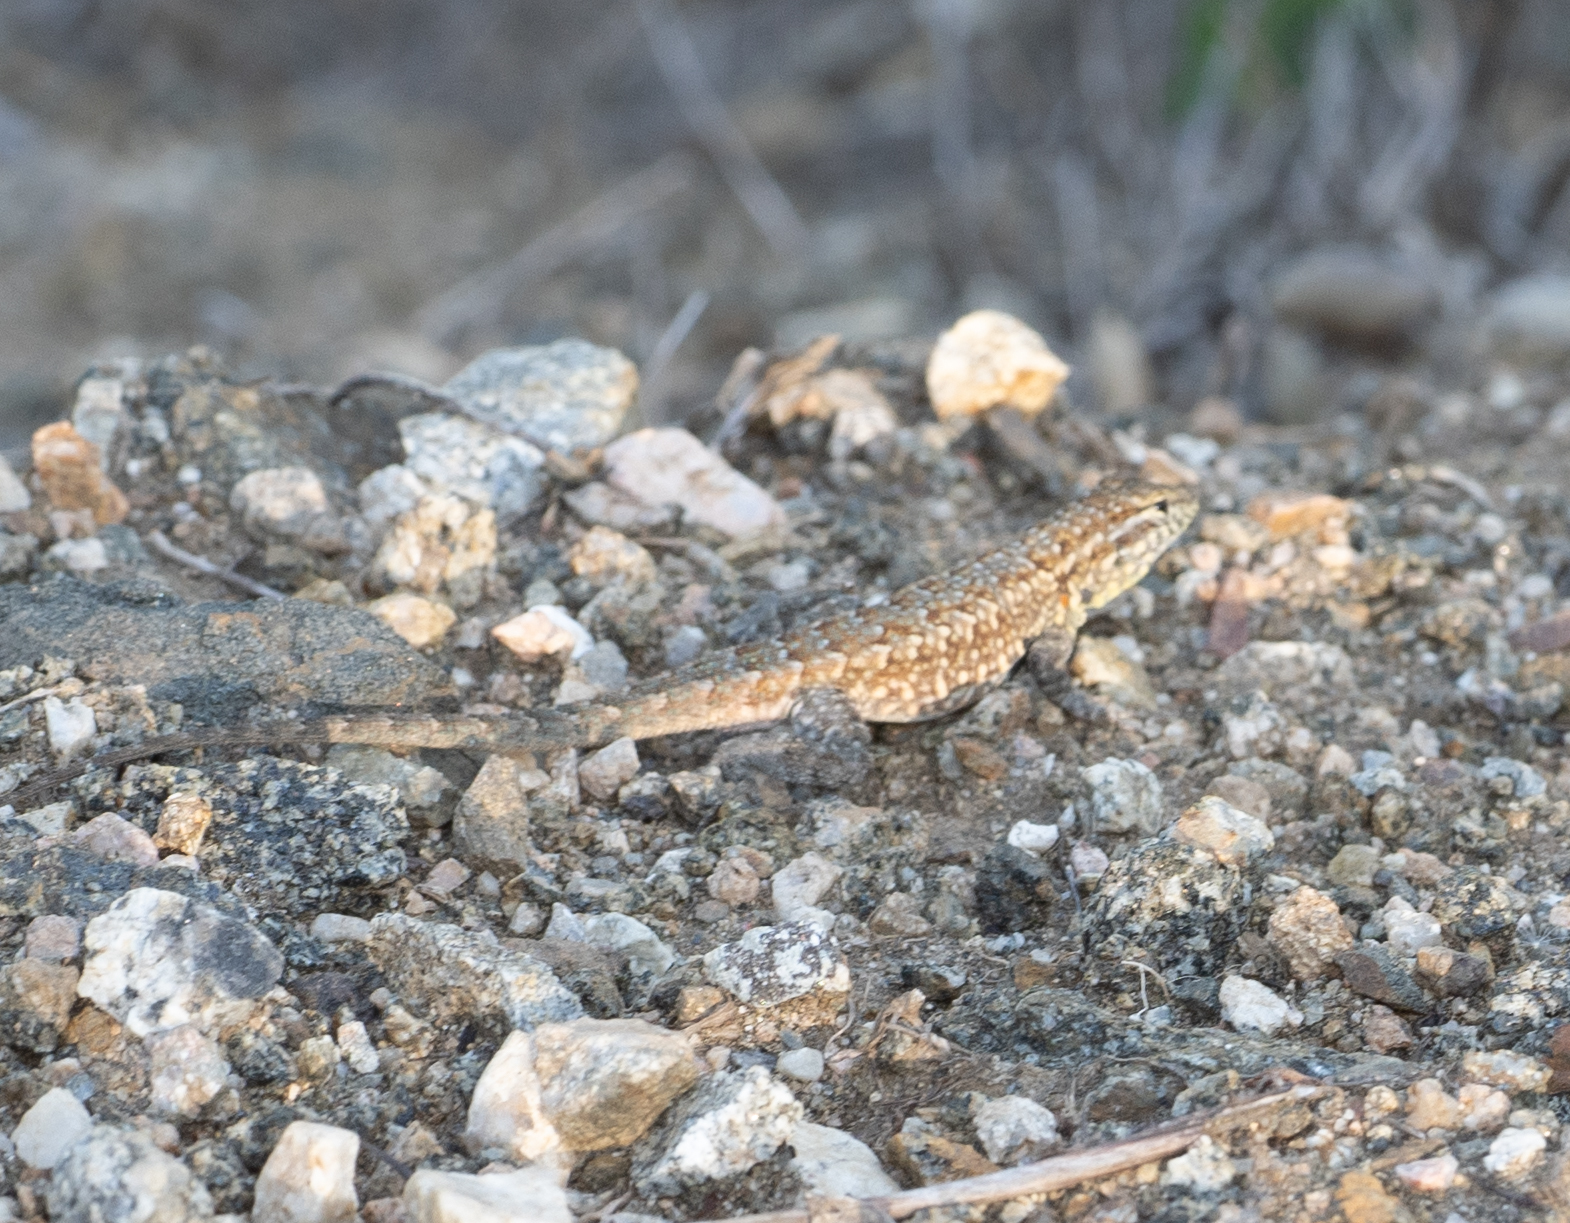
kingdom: Animalia
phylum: Chordata
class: Squamata
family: Phrynosomatidae
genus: Uta
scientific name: Uta stansburiana
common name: Side-blotched lizard
